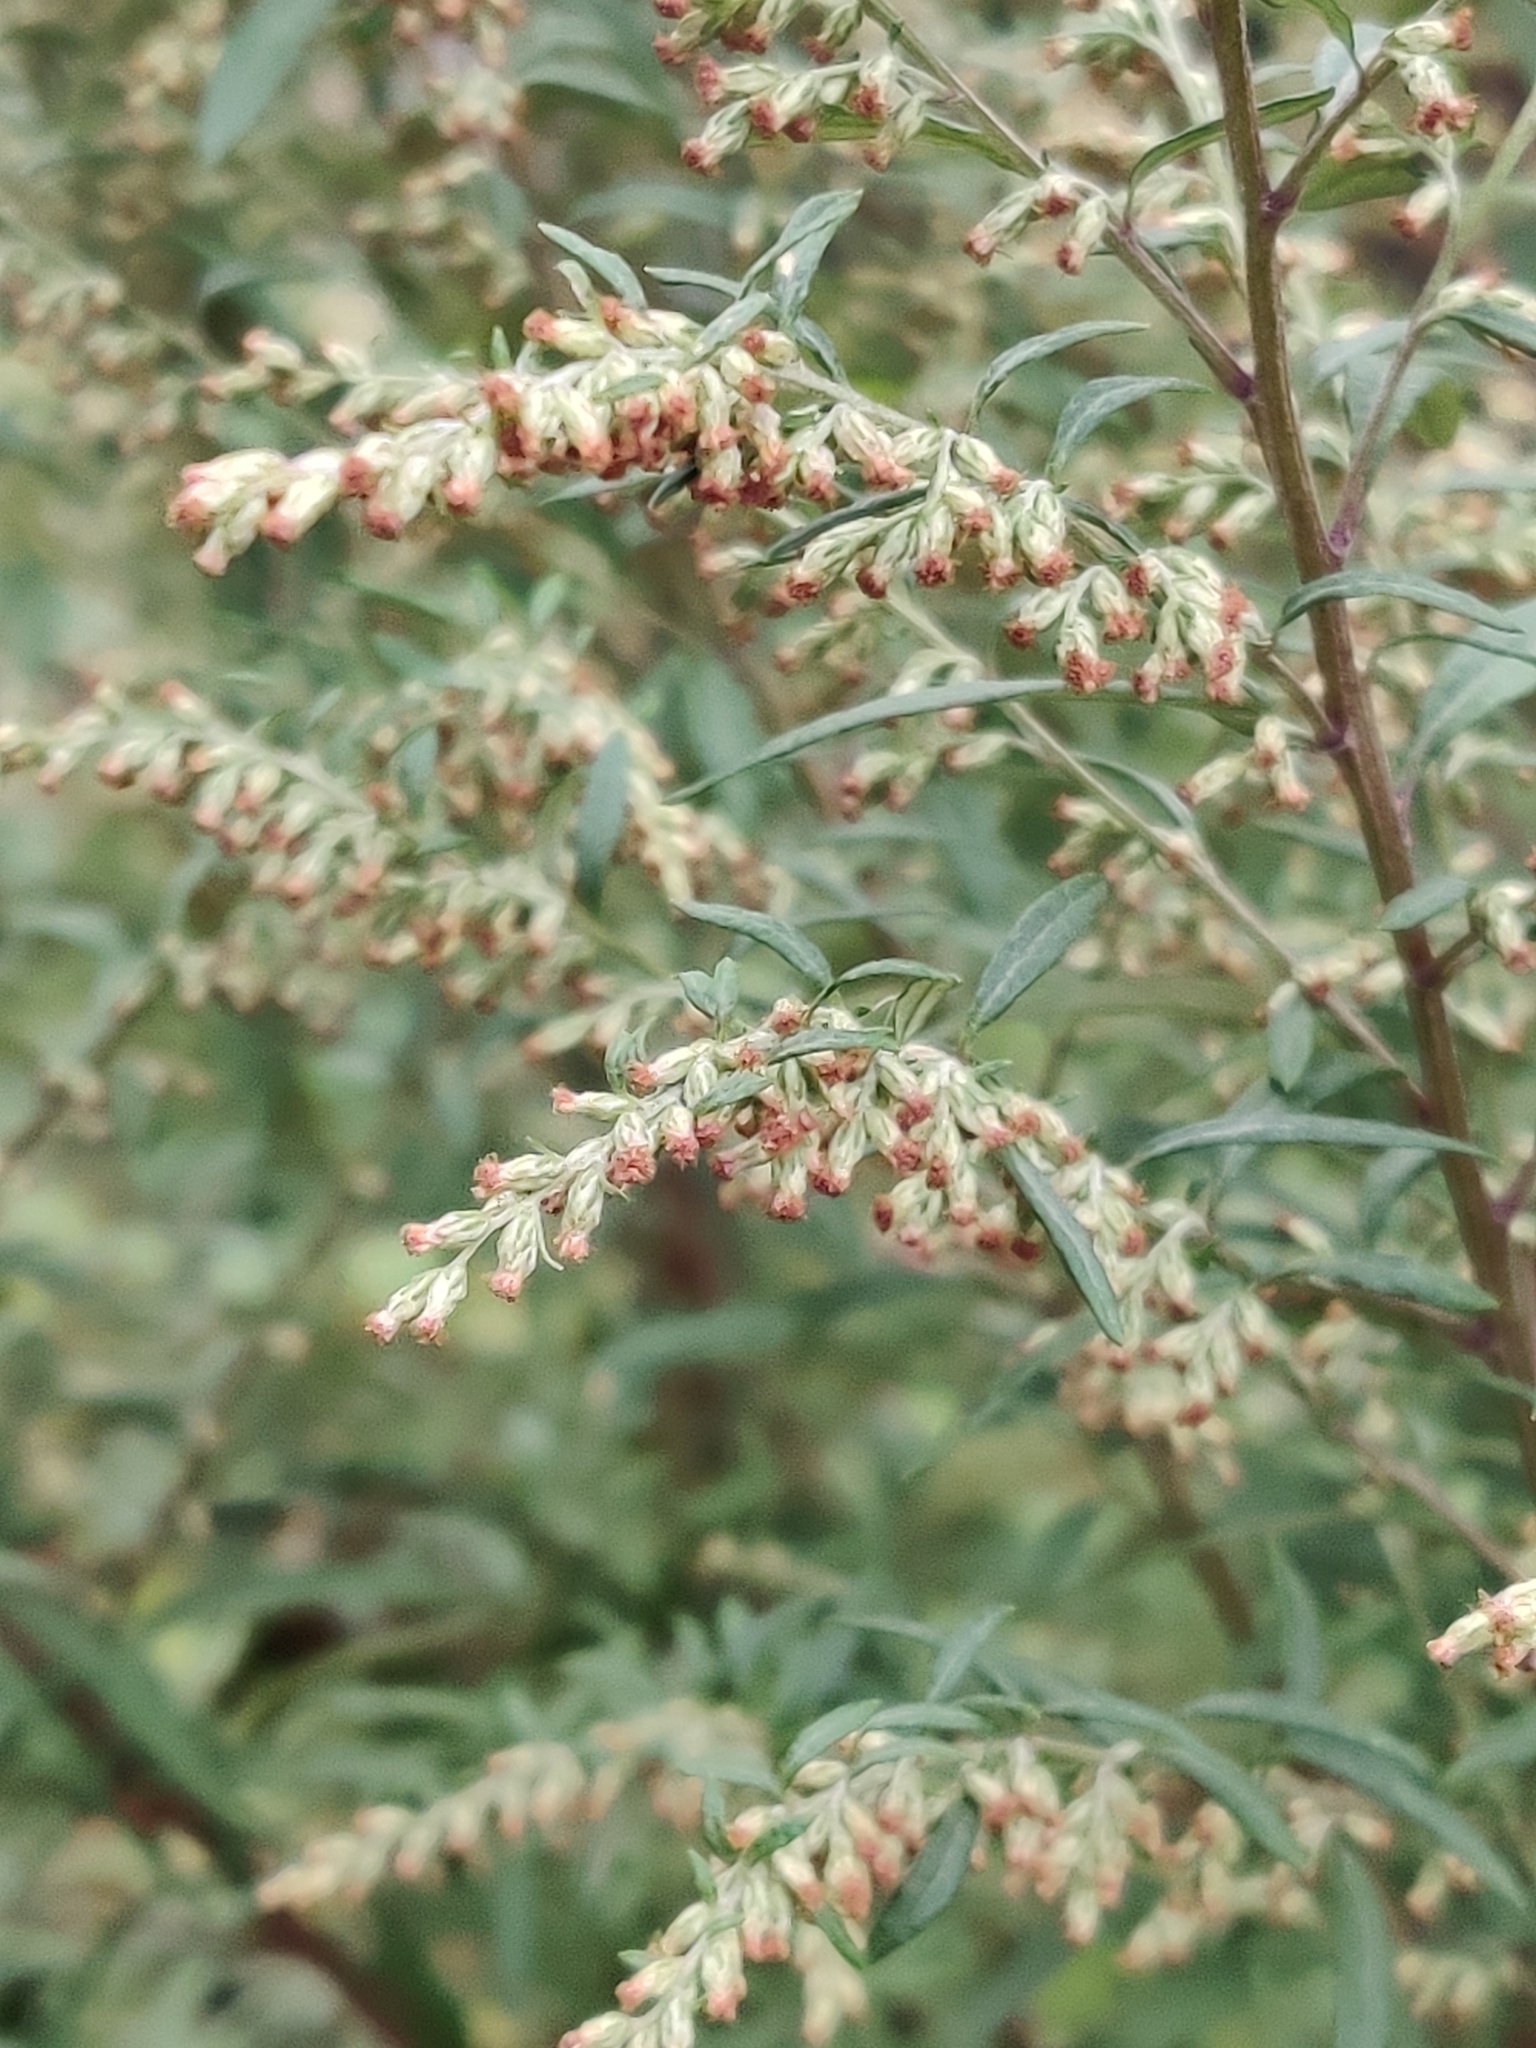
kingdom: Plantae
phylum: Tracheophyta
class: Magnoliopsida
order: Asterales
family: Asteraceae
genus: Artemisia
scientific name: Artemisia vulgaris
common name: Mugwort
